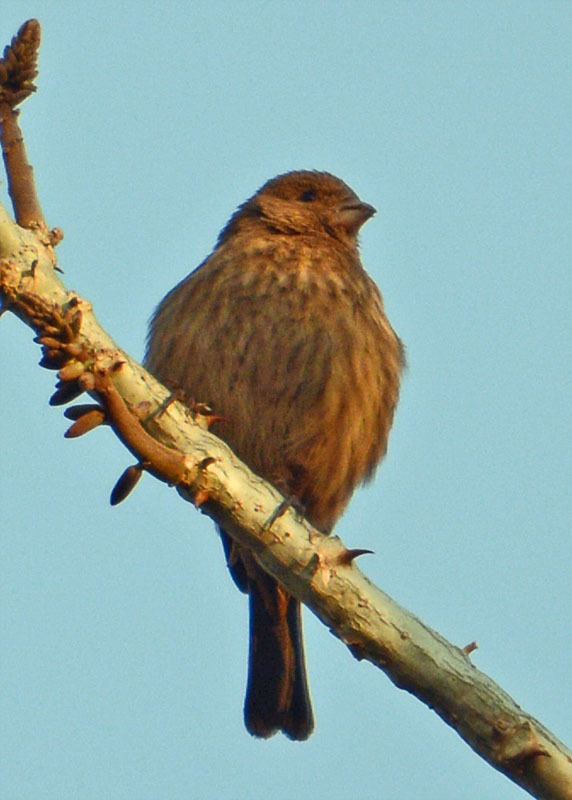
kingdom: Animalia
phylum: Chordata
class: Aves
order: Passeriformes
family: Fringillidae
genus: Haemorhous
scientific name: Haemorhous mexicanus
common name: House finch
